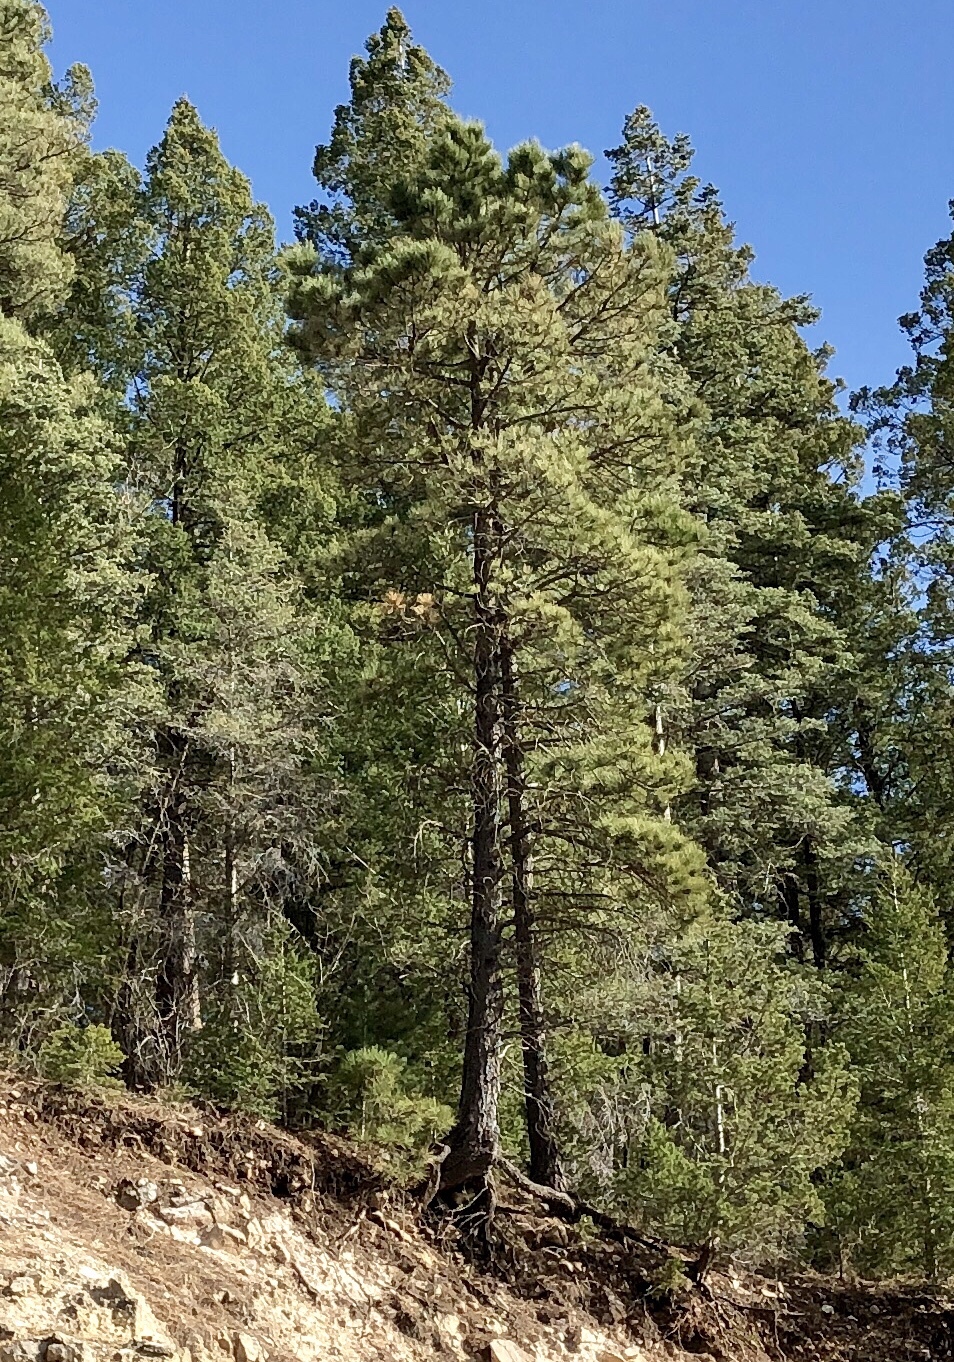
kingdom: Plantae
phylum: Tracheophyta
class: Pinopsida
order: Pinales
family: Pinaceae
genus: Pinus
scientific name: Pinus ponderosa
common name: Western yellow-pine
